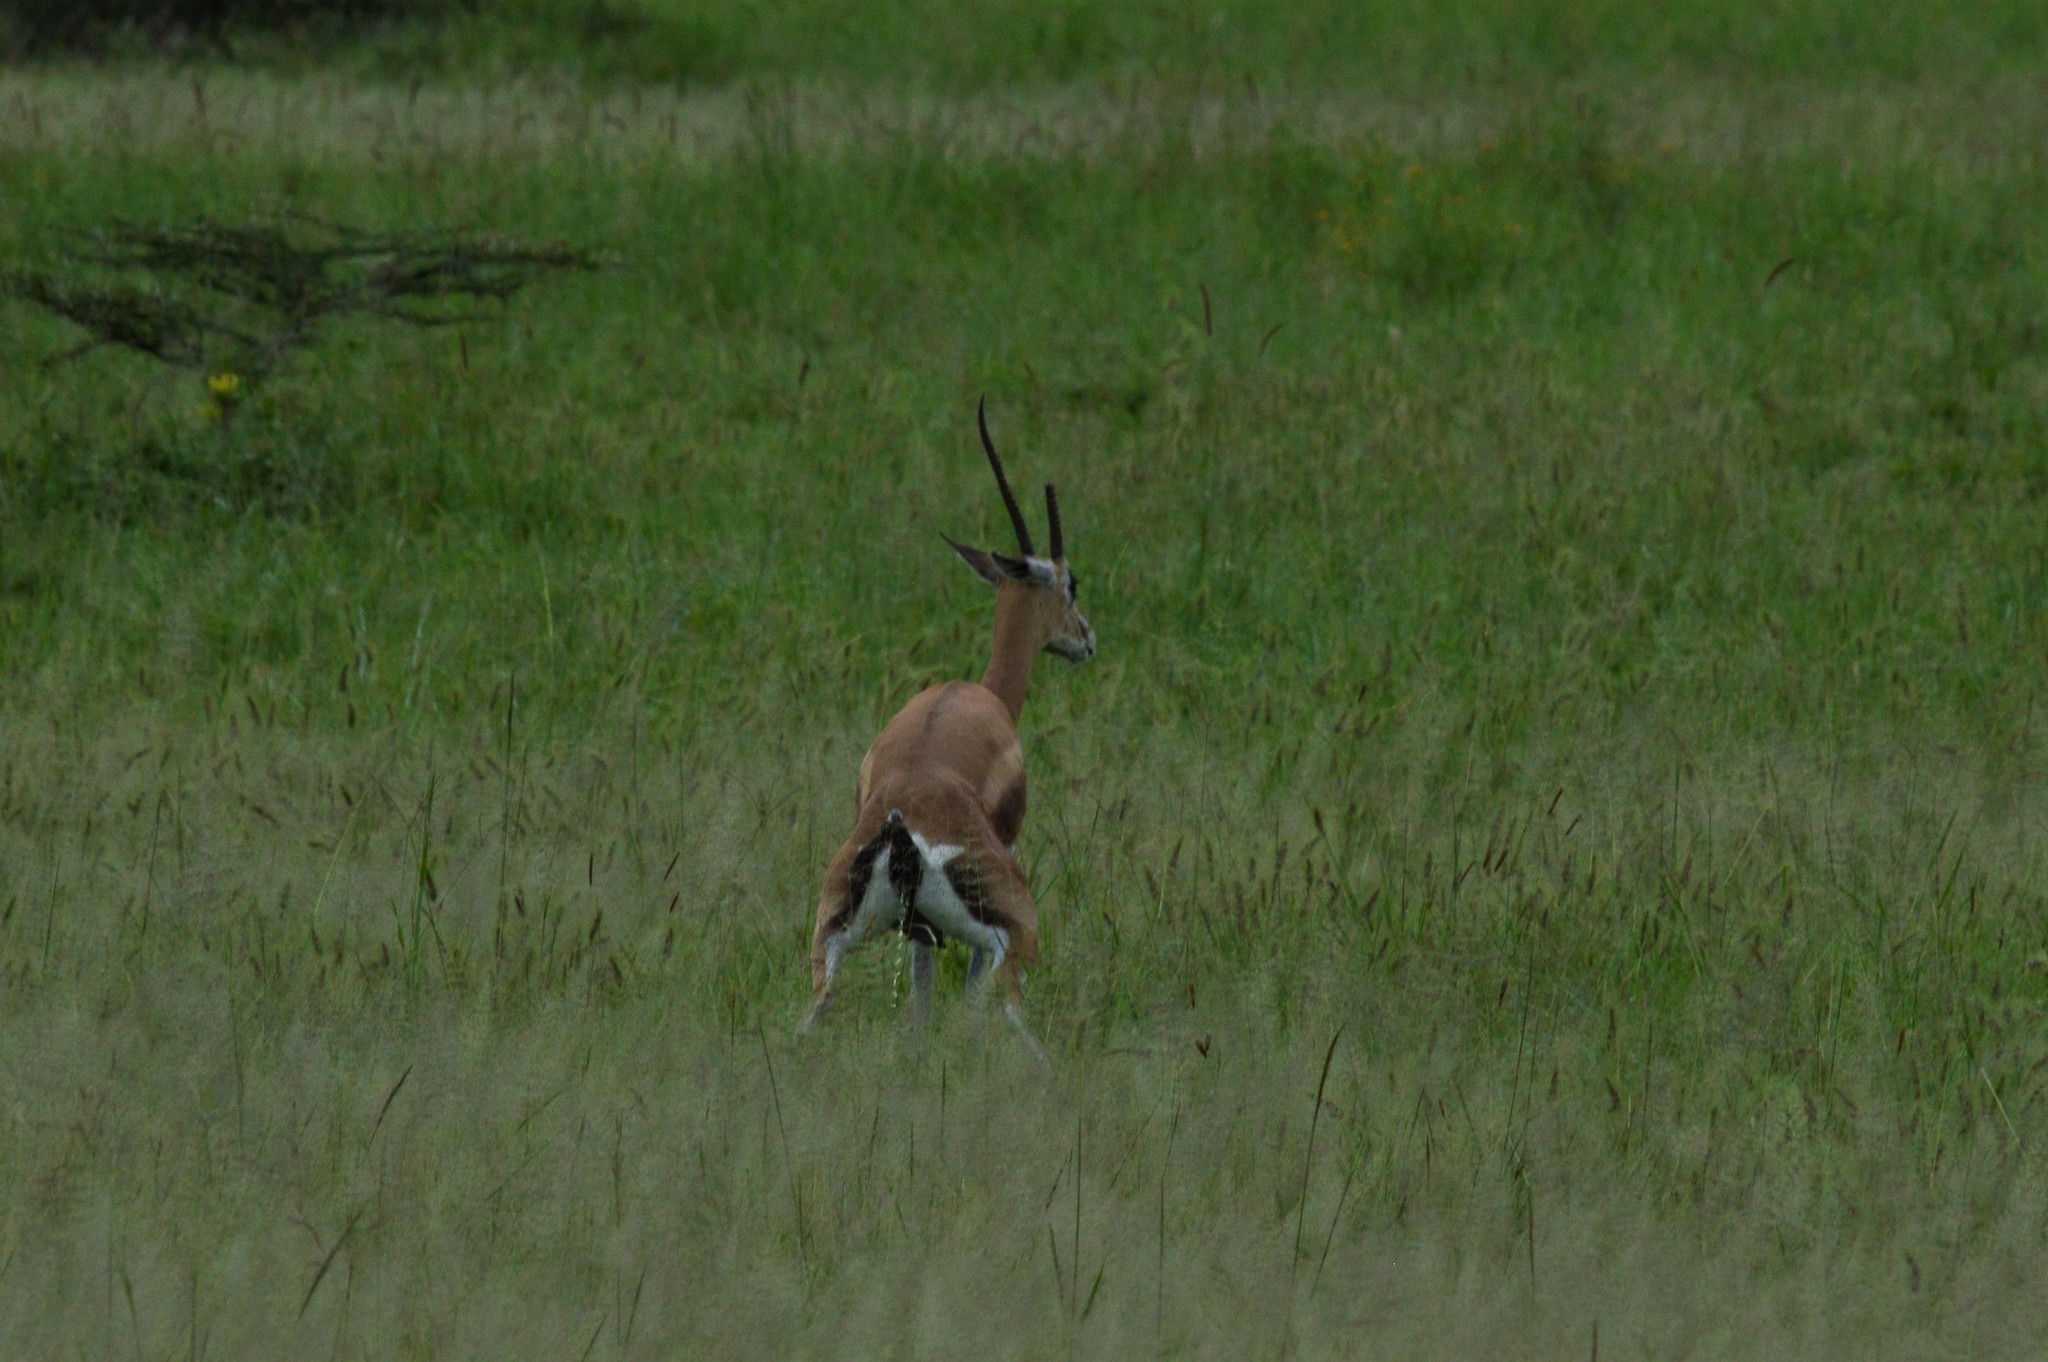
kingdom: Animalia
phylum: Chordata
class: Mammalia
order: Artiodactyla
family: Bovidae
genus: Nanger
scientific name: Nanger granti
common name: Grant's gazelle
